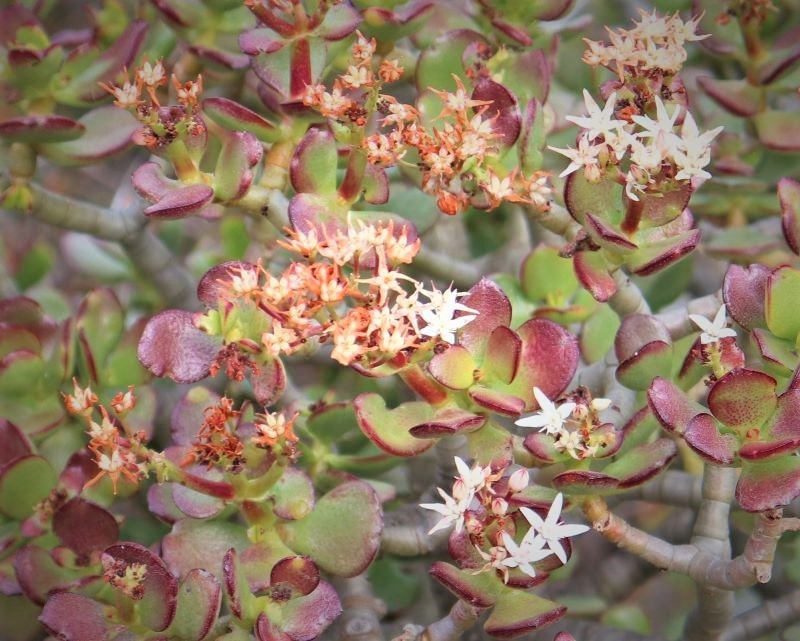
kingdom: Plantae
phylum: Tracheophyta
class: Magnoliopsida
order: Saxifragales
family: Crassulaceae
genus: Crassula
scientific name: Crassula ovata
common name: Jade plant
